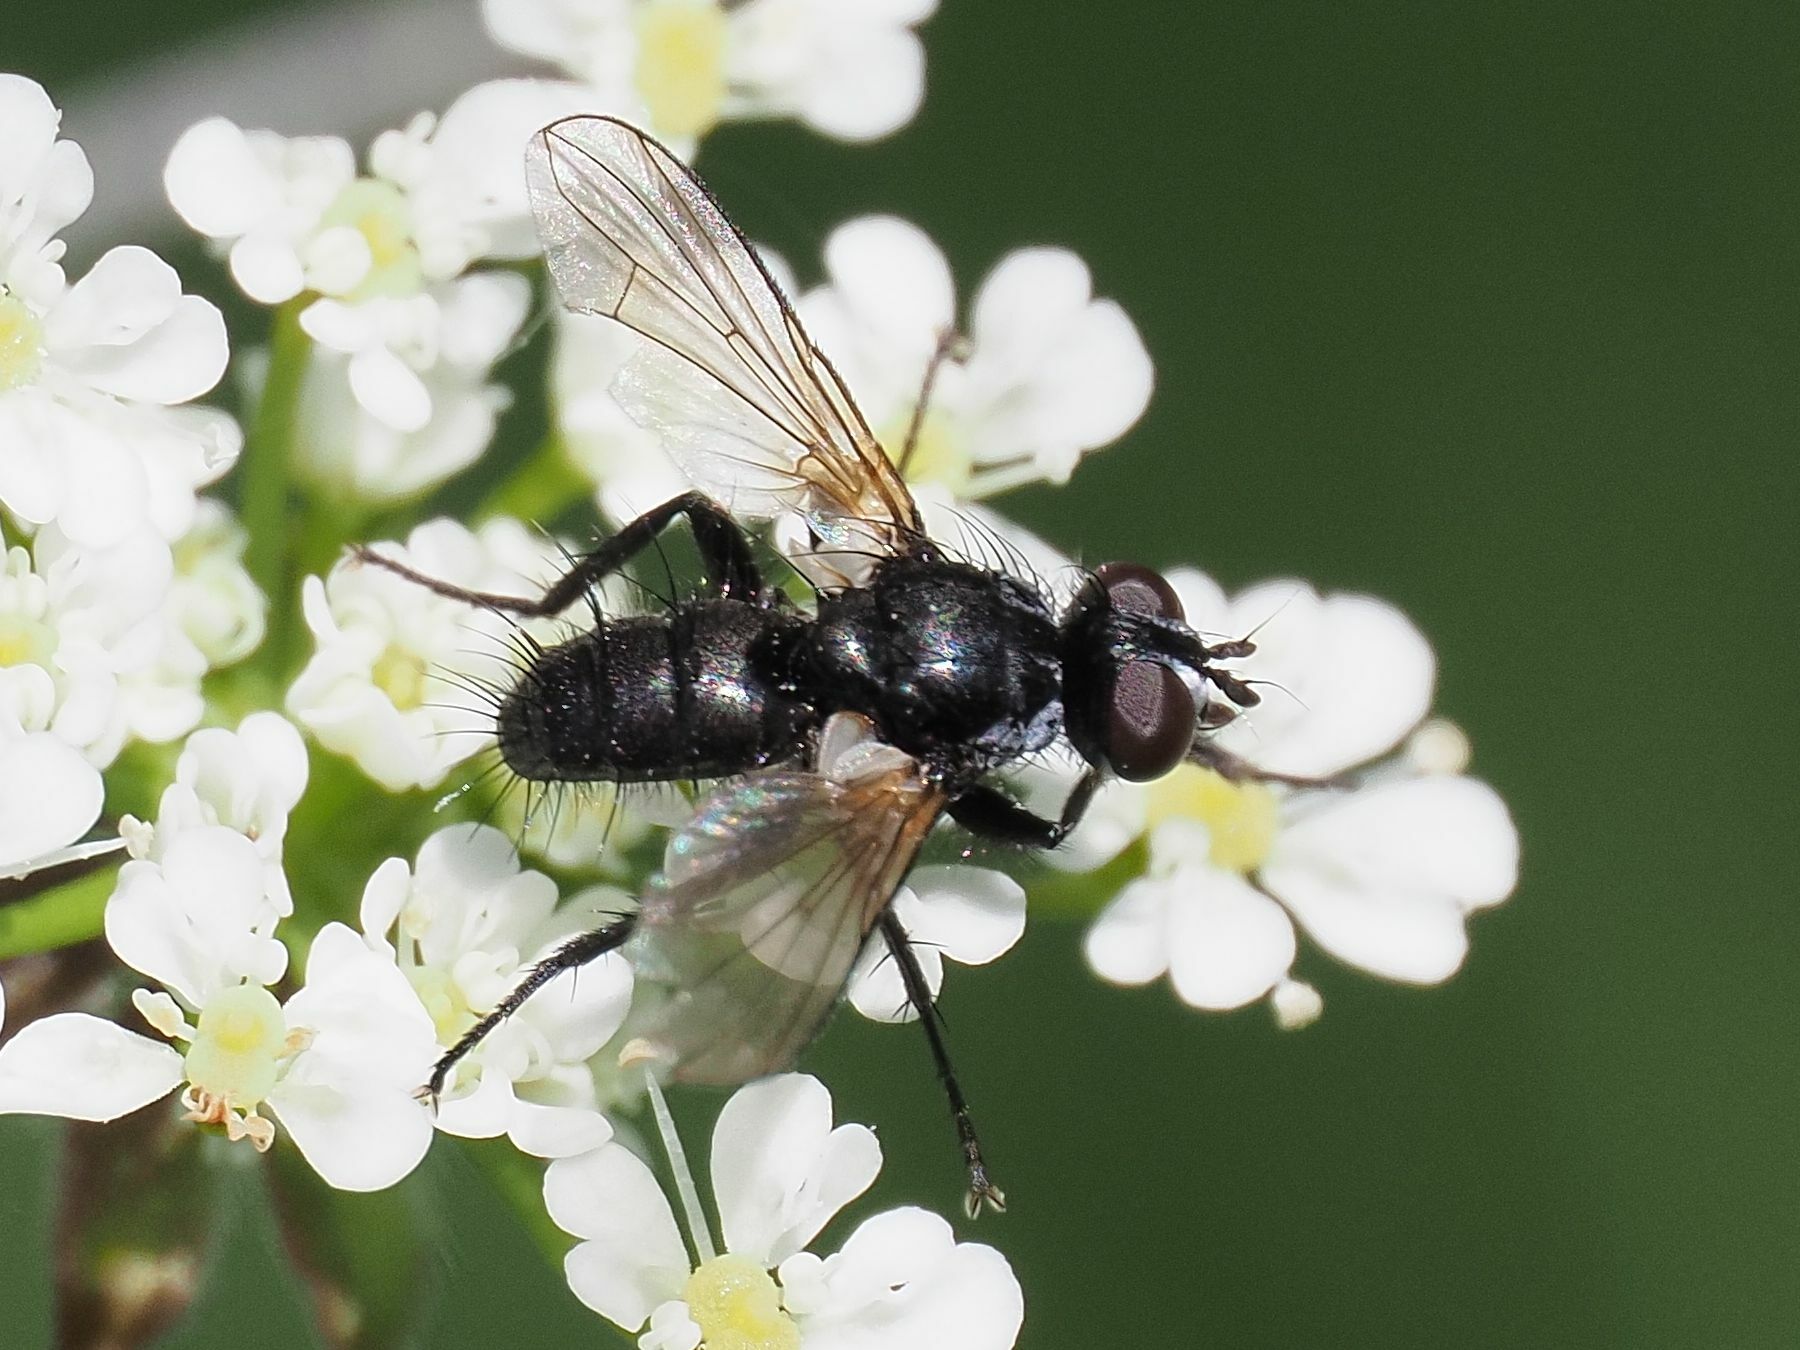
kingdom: Animalia
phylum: Arthropoda
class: Insecta
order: Diptera
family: Tachinidae
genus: Phania
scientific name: Phania funesta
